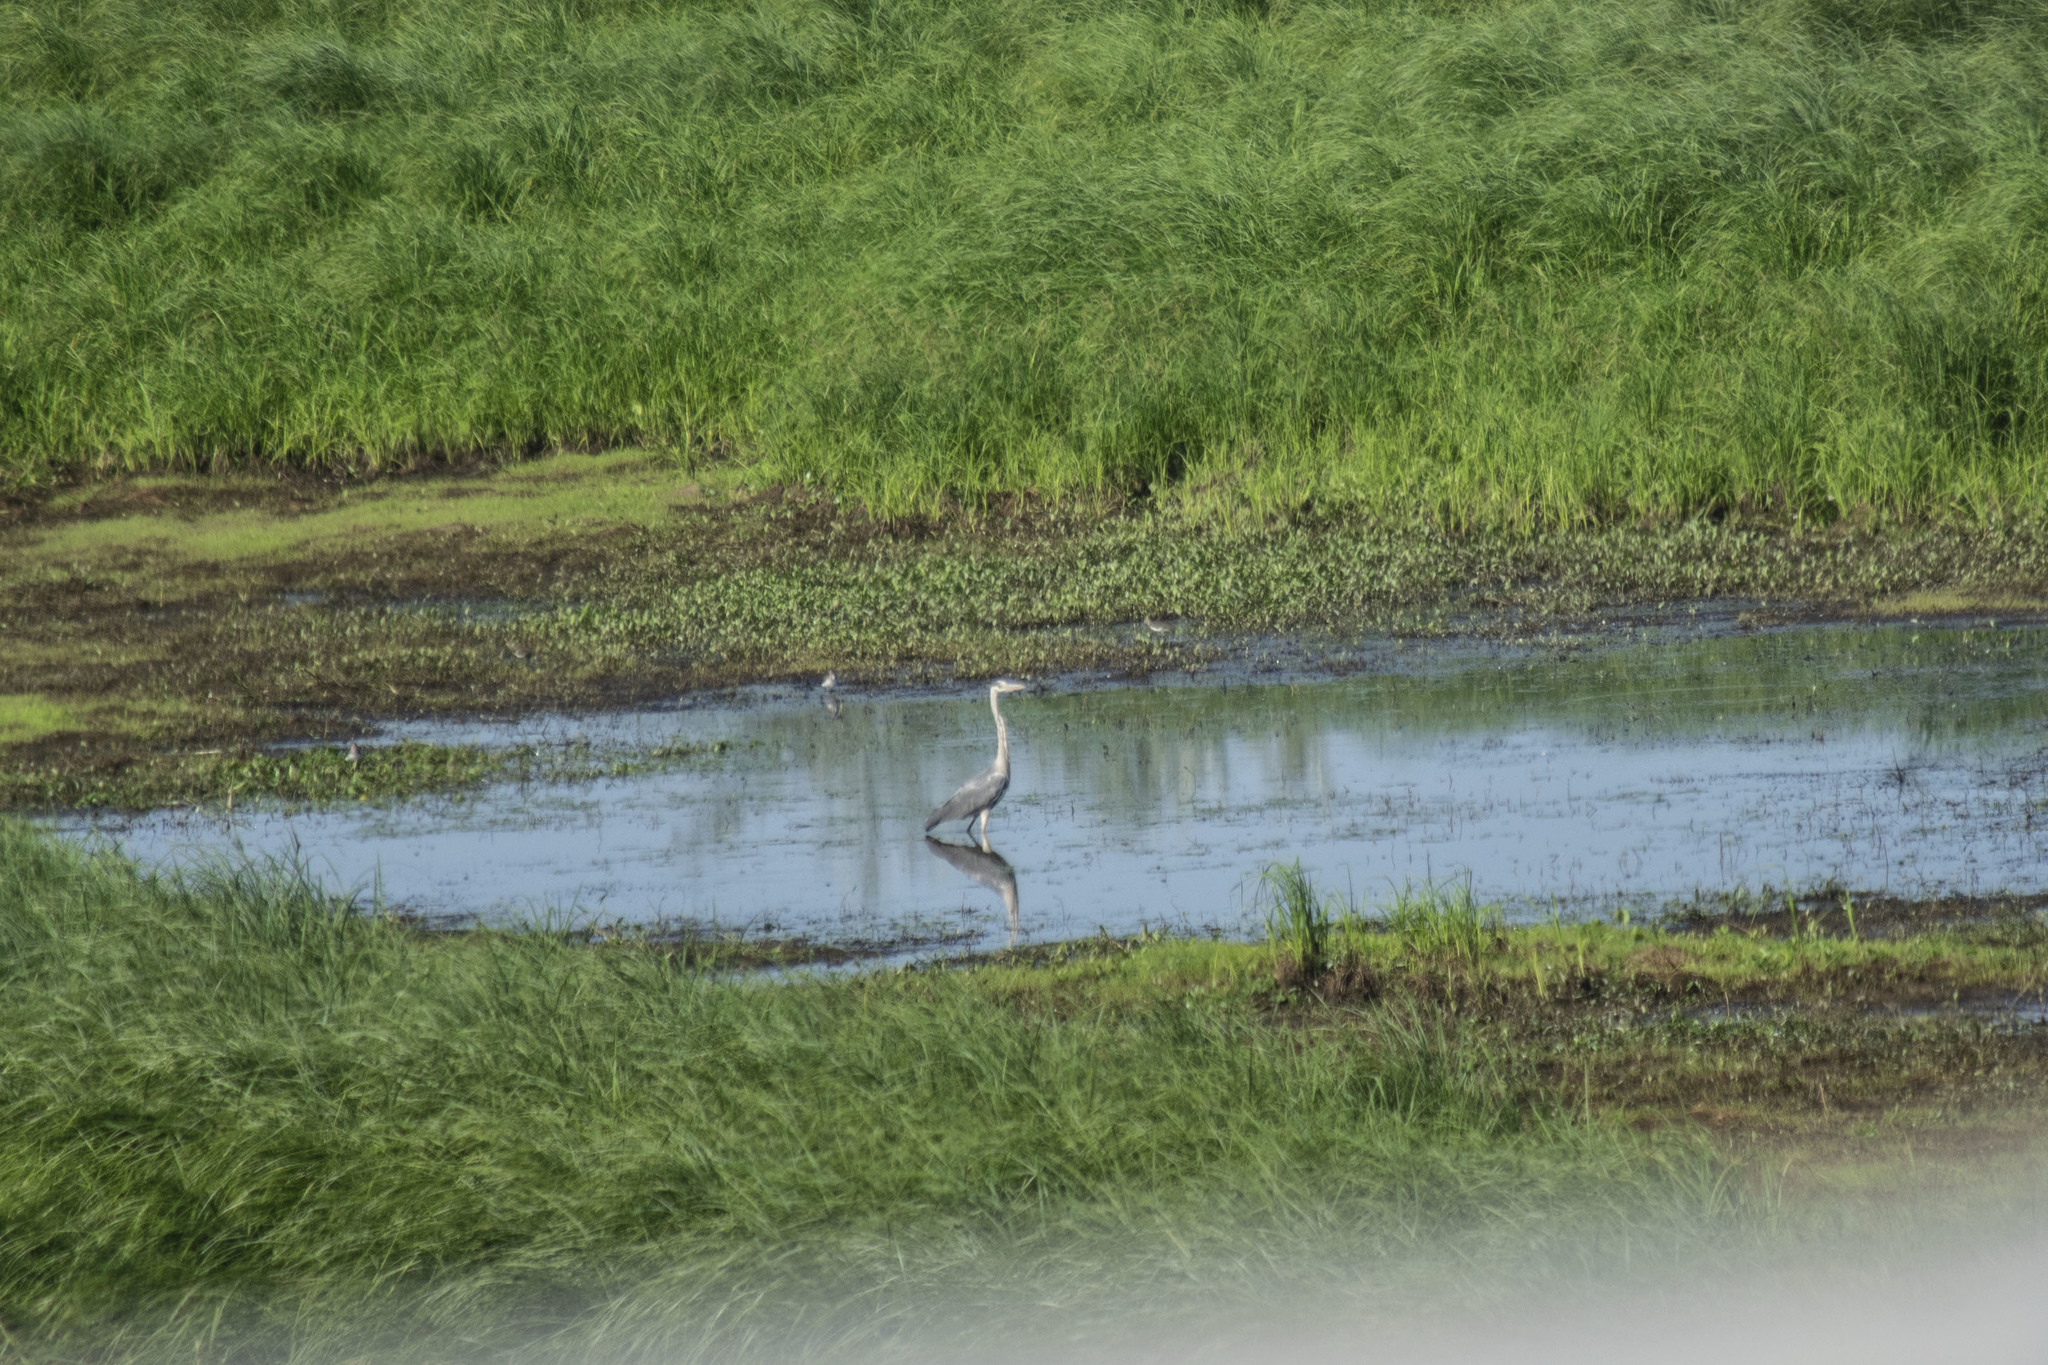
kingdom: Animalia
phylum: Chordata
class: Aves
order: Pelecaniformes
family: Ardeidae
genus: Ardea
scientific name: Ardea cinerea
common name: Grey heron
